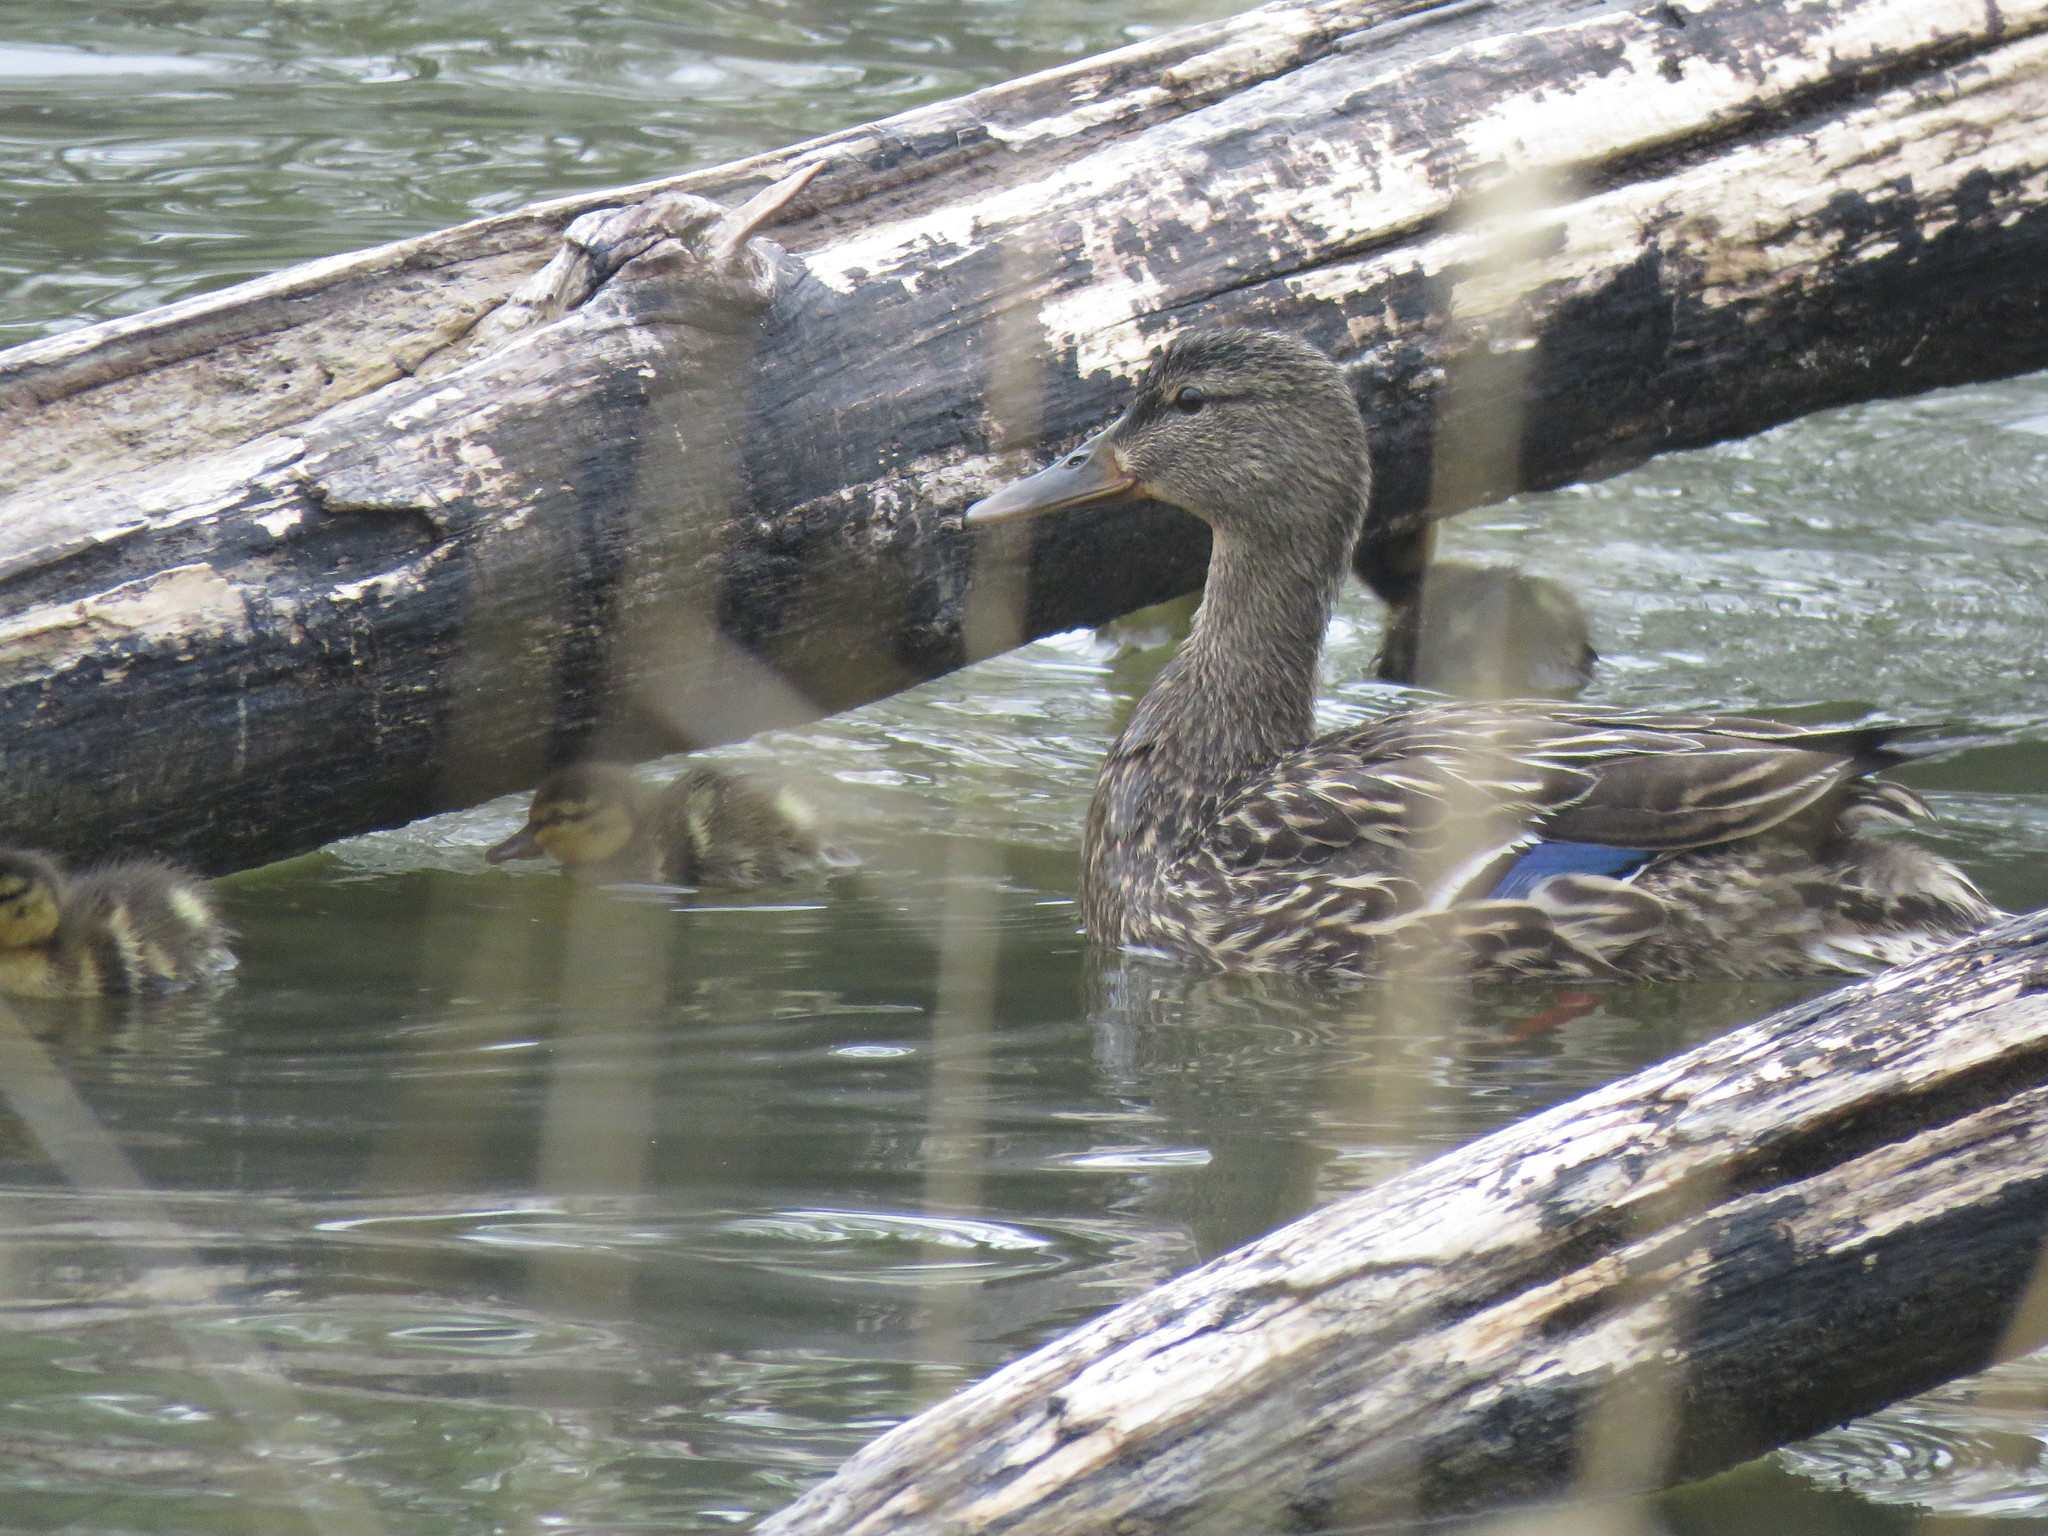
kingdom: Animalia
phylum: Chordata
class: Aves
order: Anseriformes
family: Anatidae
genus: Anas
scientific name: Anas platyrhynchos
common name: Mallard
